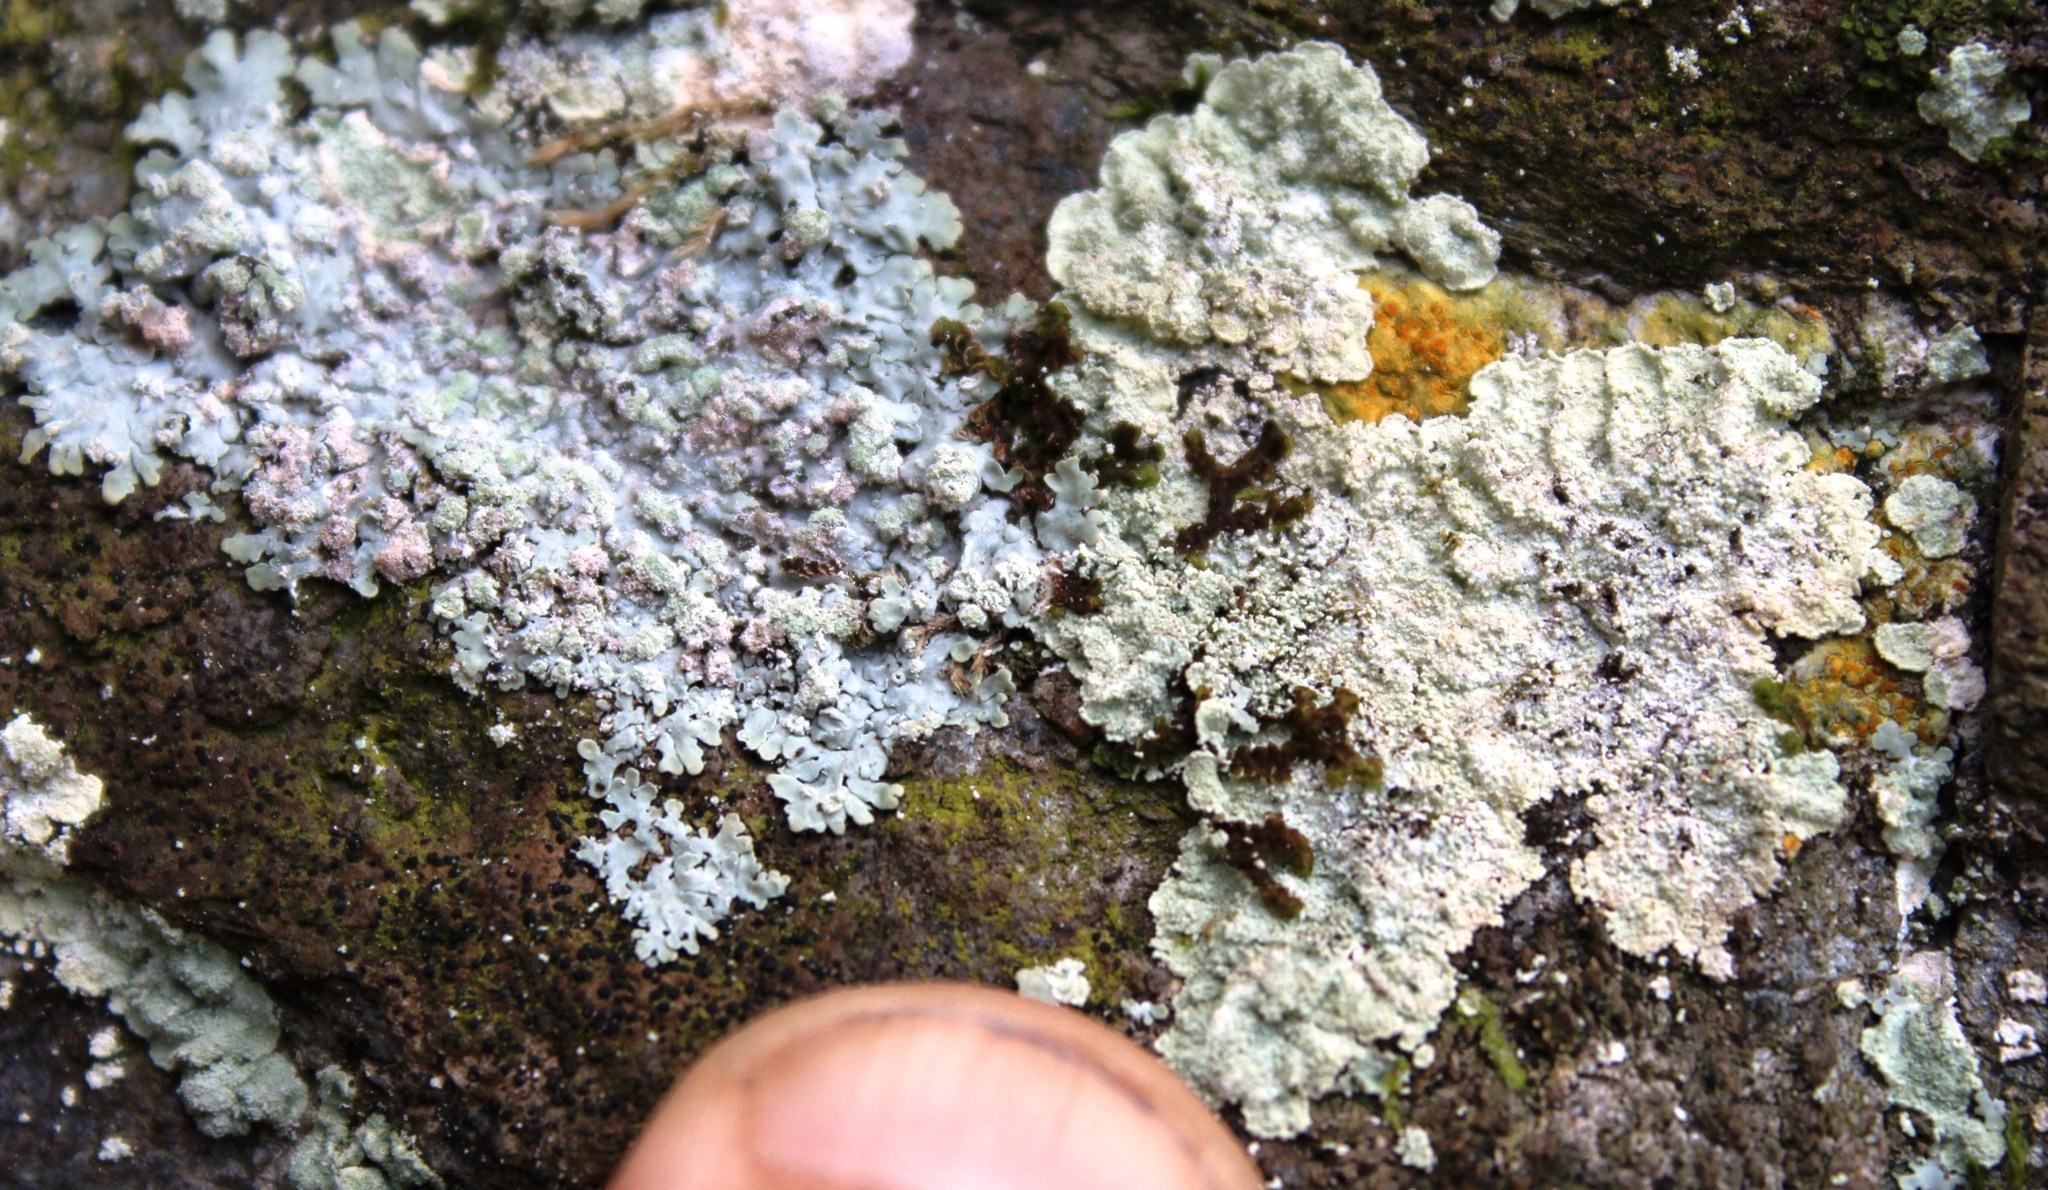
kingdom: Fungi
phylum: Ascomycota
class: Lecanoromycetes
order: Lecanorales
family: Stereocaulaceae
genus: Lepraria
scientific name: Lepraria sipmaniana
